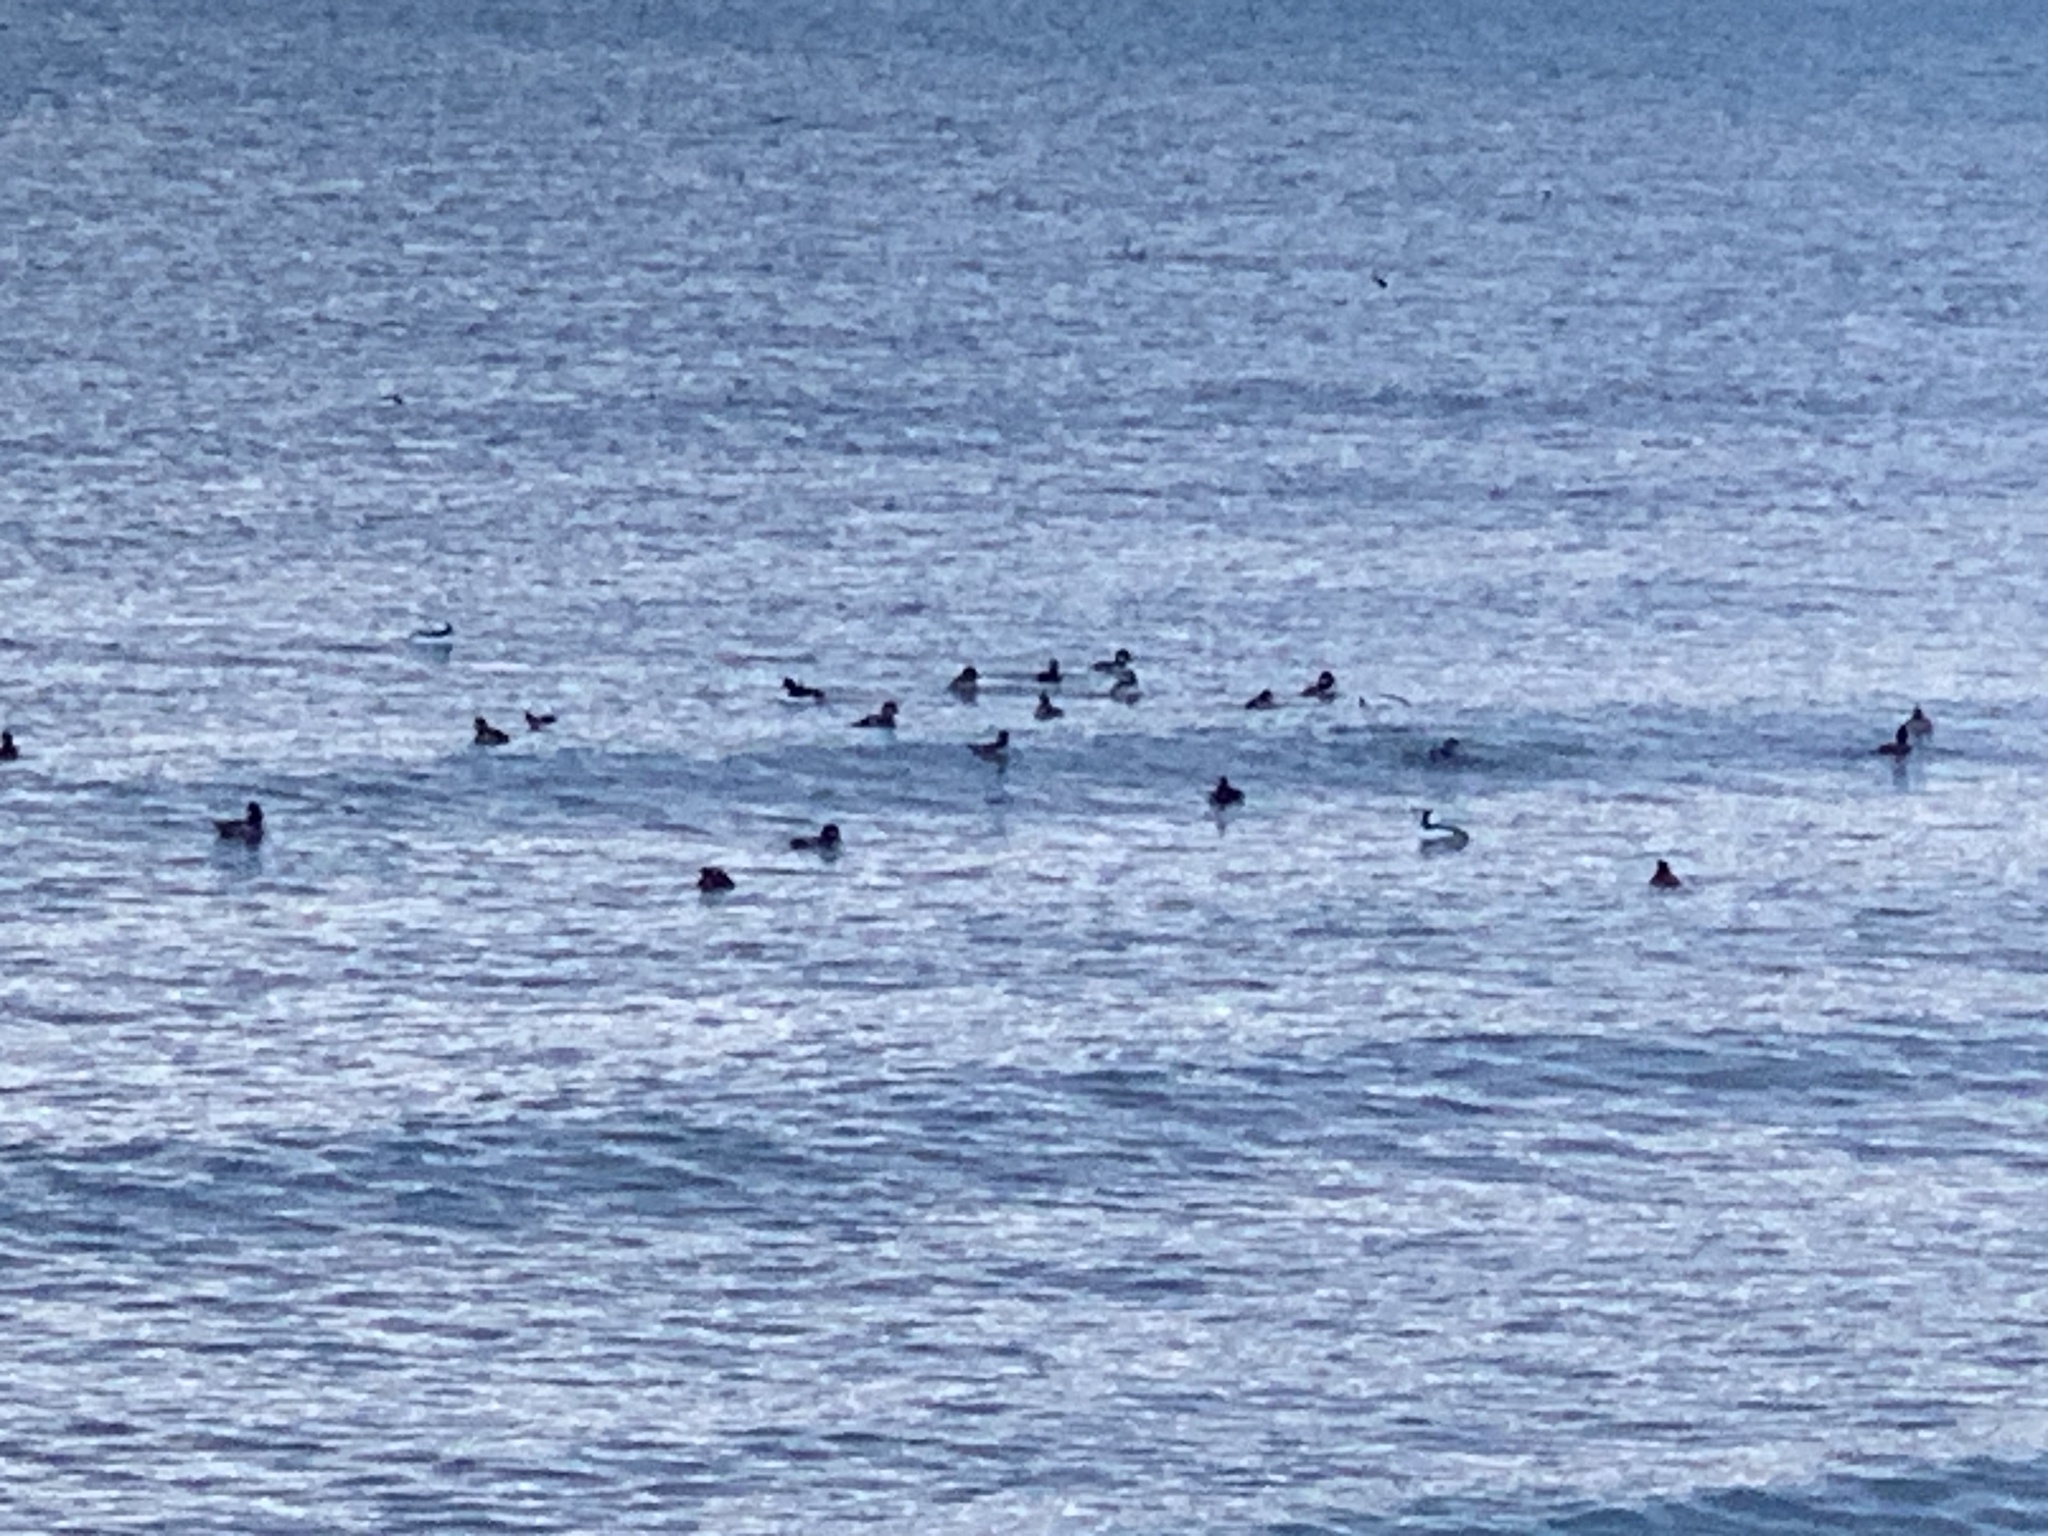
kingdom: Animalia
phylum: Chordata
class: Aves
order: Anseriformes
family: Anatidae
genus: Bucephala
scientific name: Bucephala albeola
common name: Bufflehead
